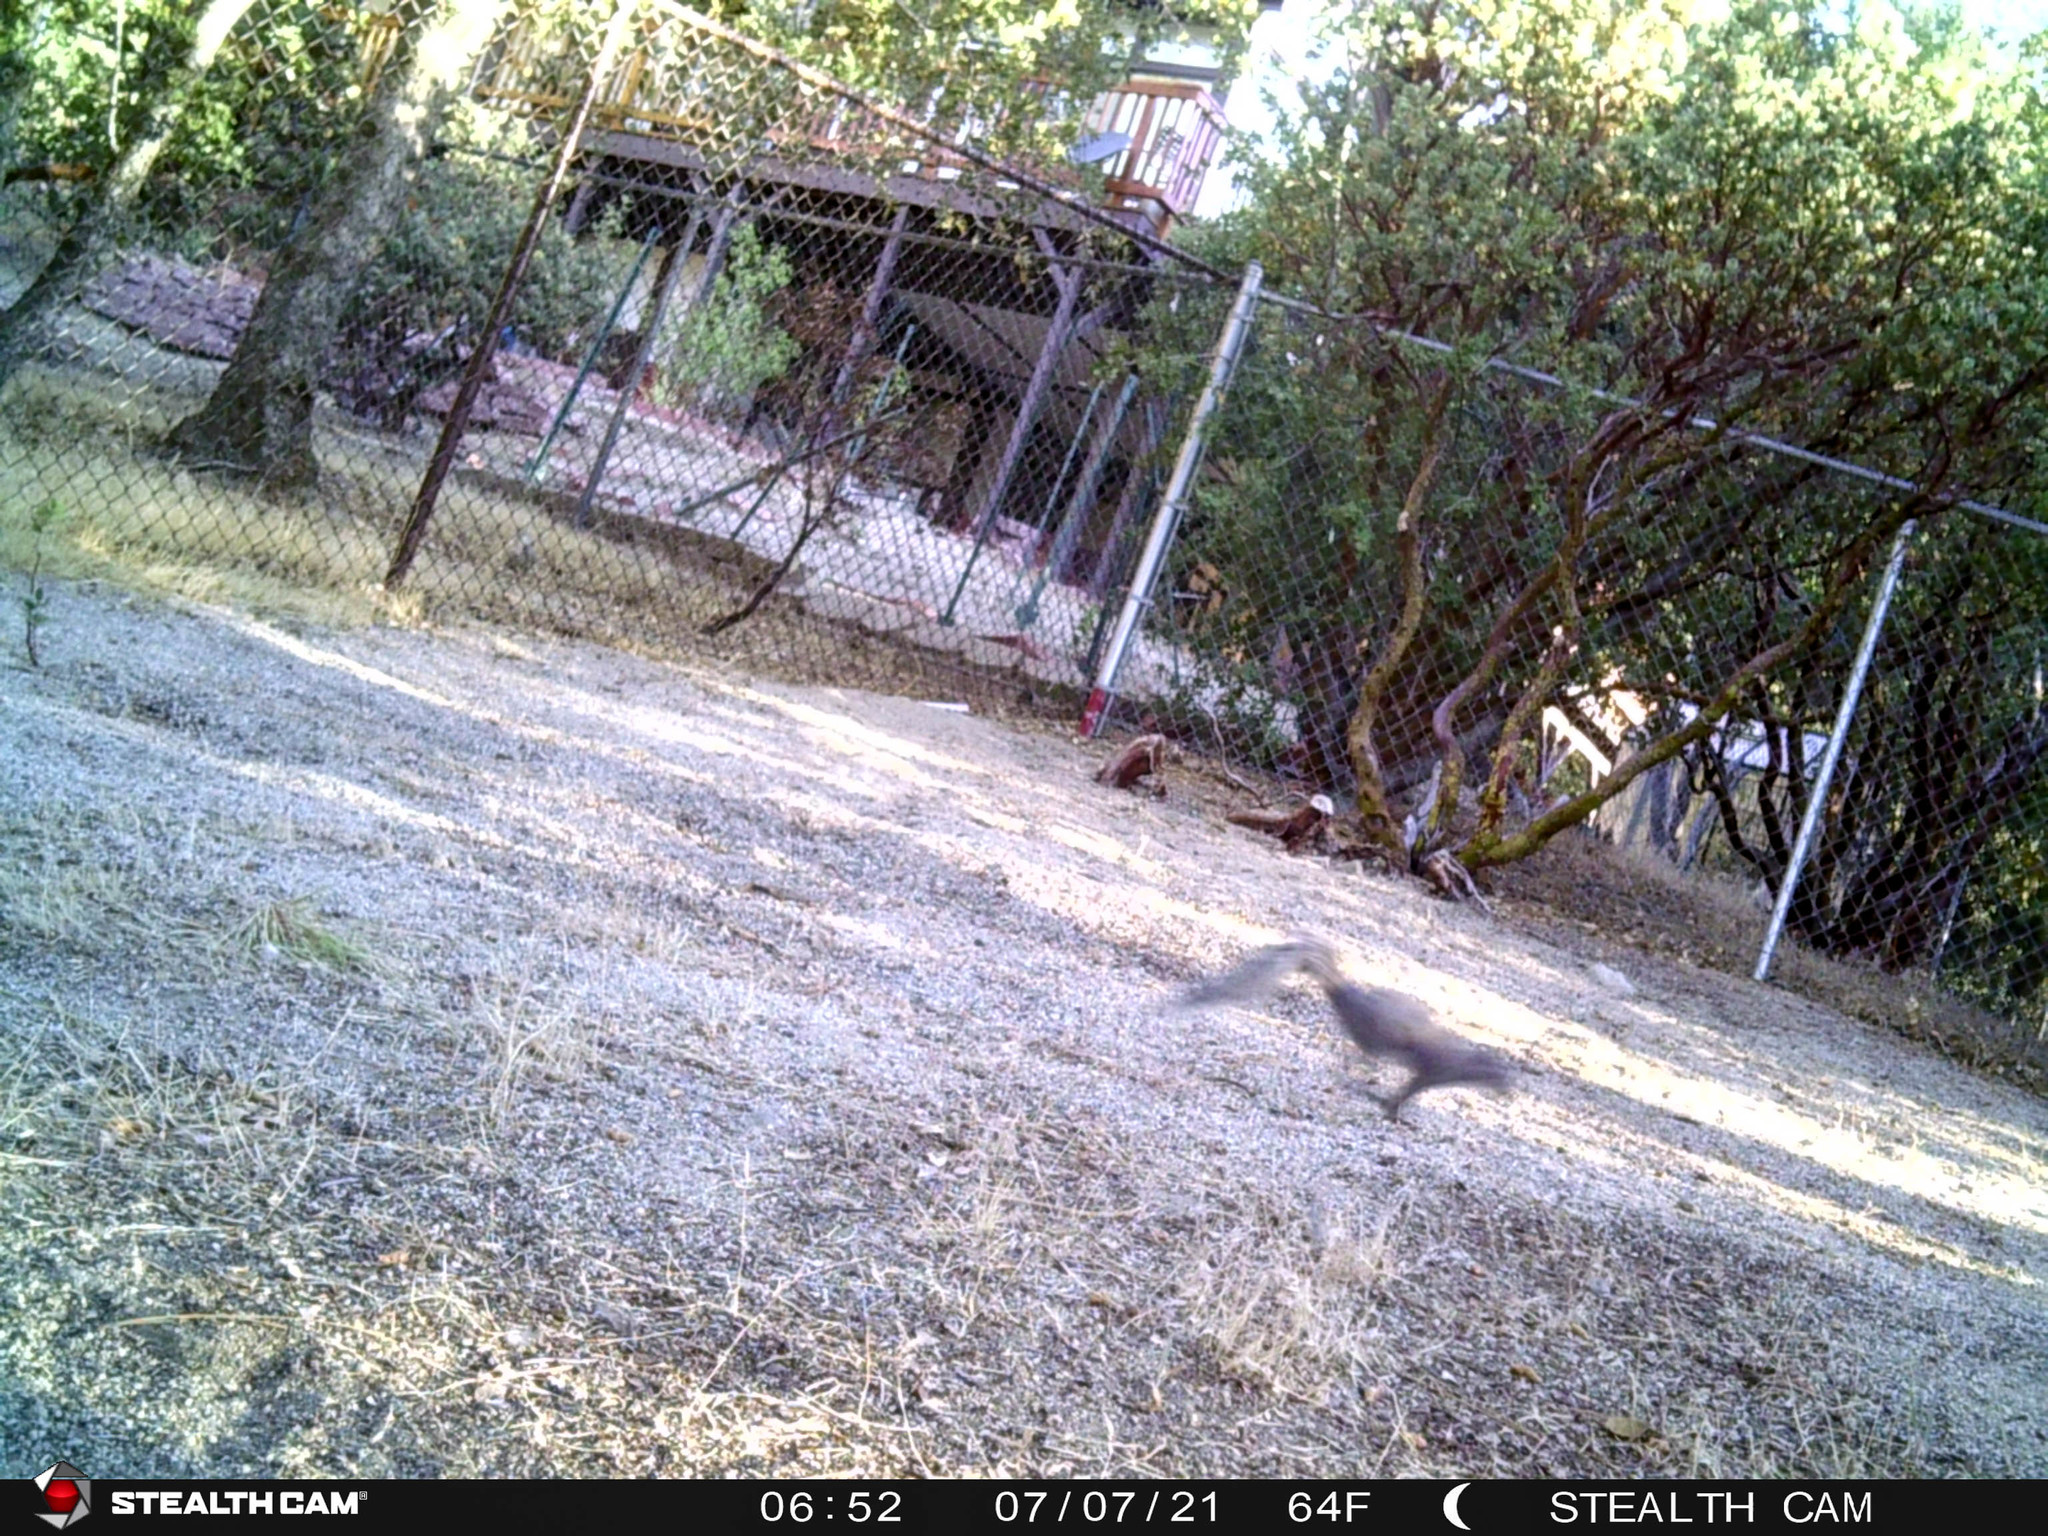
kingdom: Animalia
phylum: Chordata
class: Mammalia
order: Rodentia
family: Sciuridae
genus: Sciurus
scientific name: Sciurus griseus
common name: Western gray squirrel
